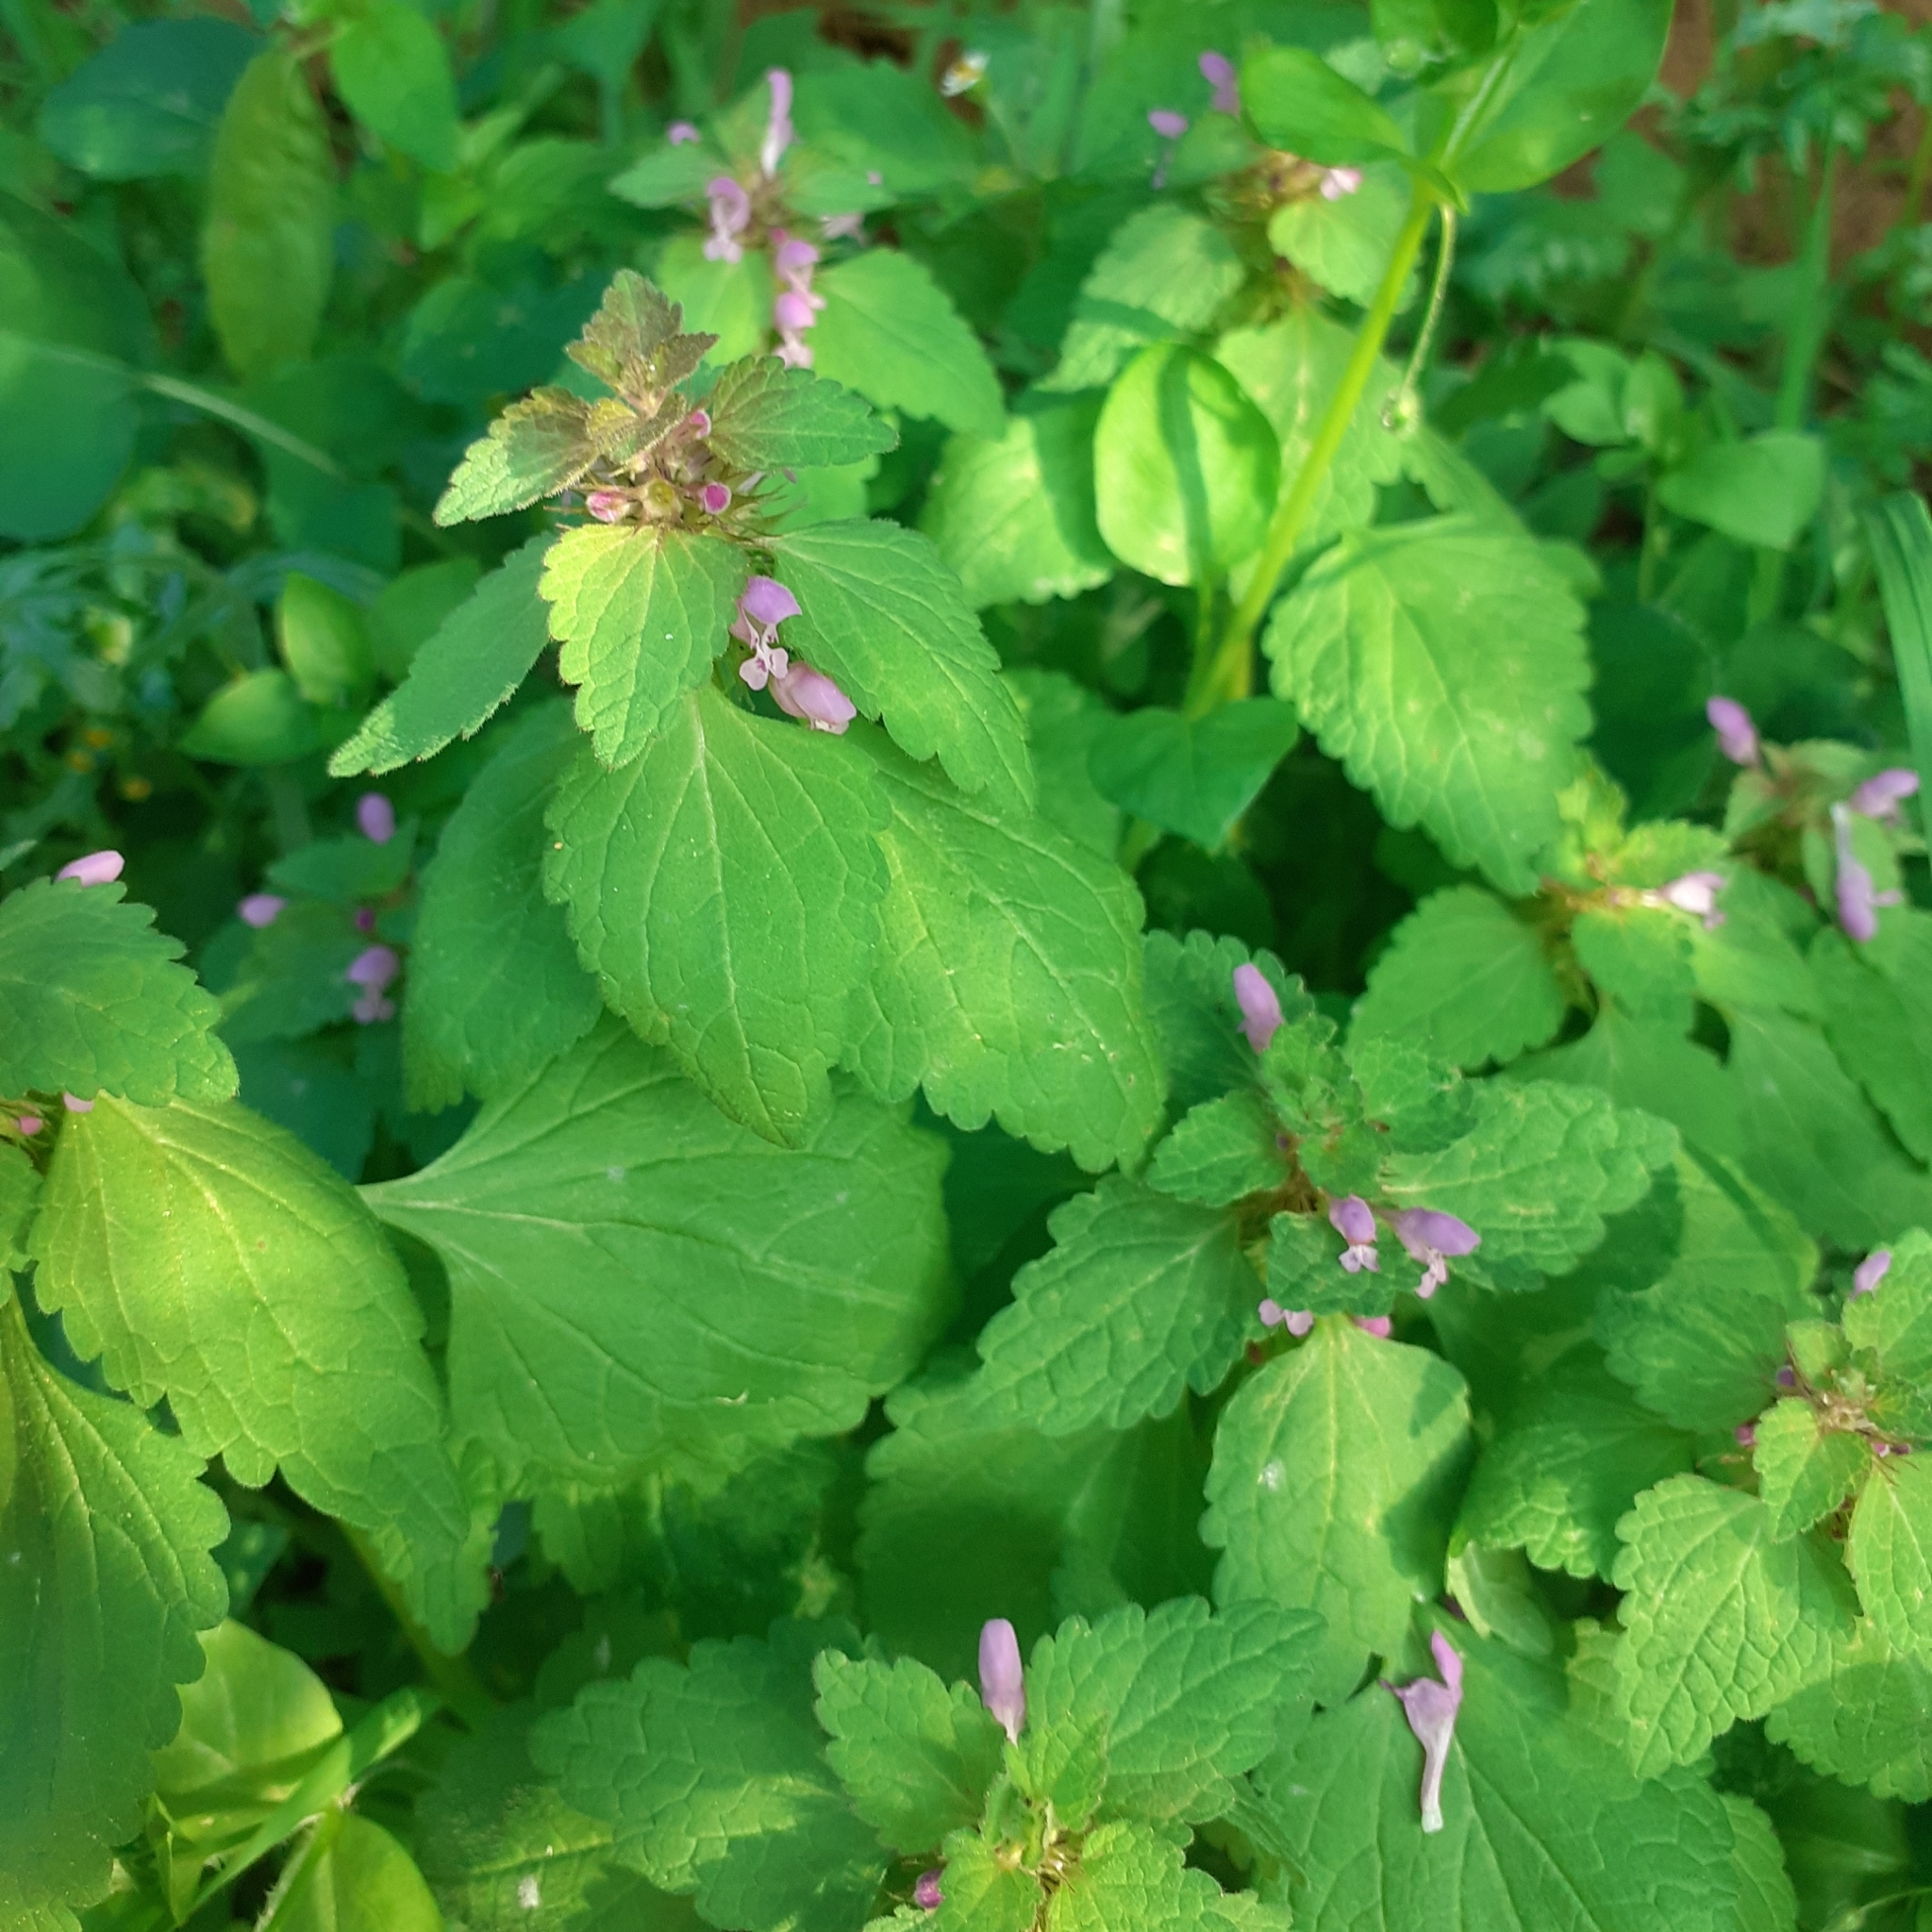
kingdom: Plantae
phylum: Tracheophyta
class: Magnoliopsida
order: Lamiales
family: Lamiaceae
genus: Lamium
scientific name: Lamium purpureum
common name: Red dead-nettle
